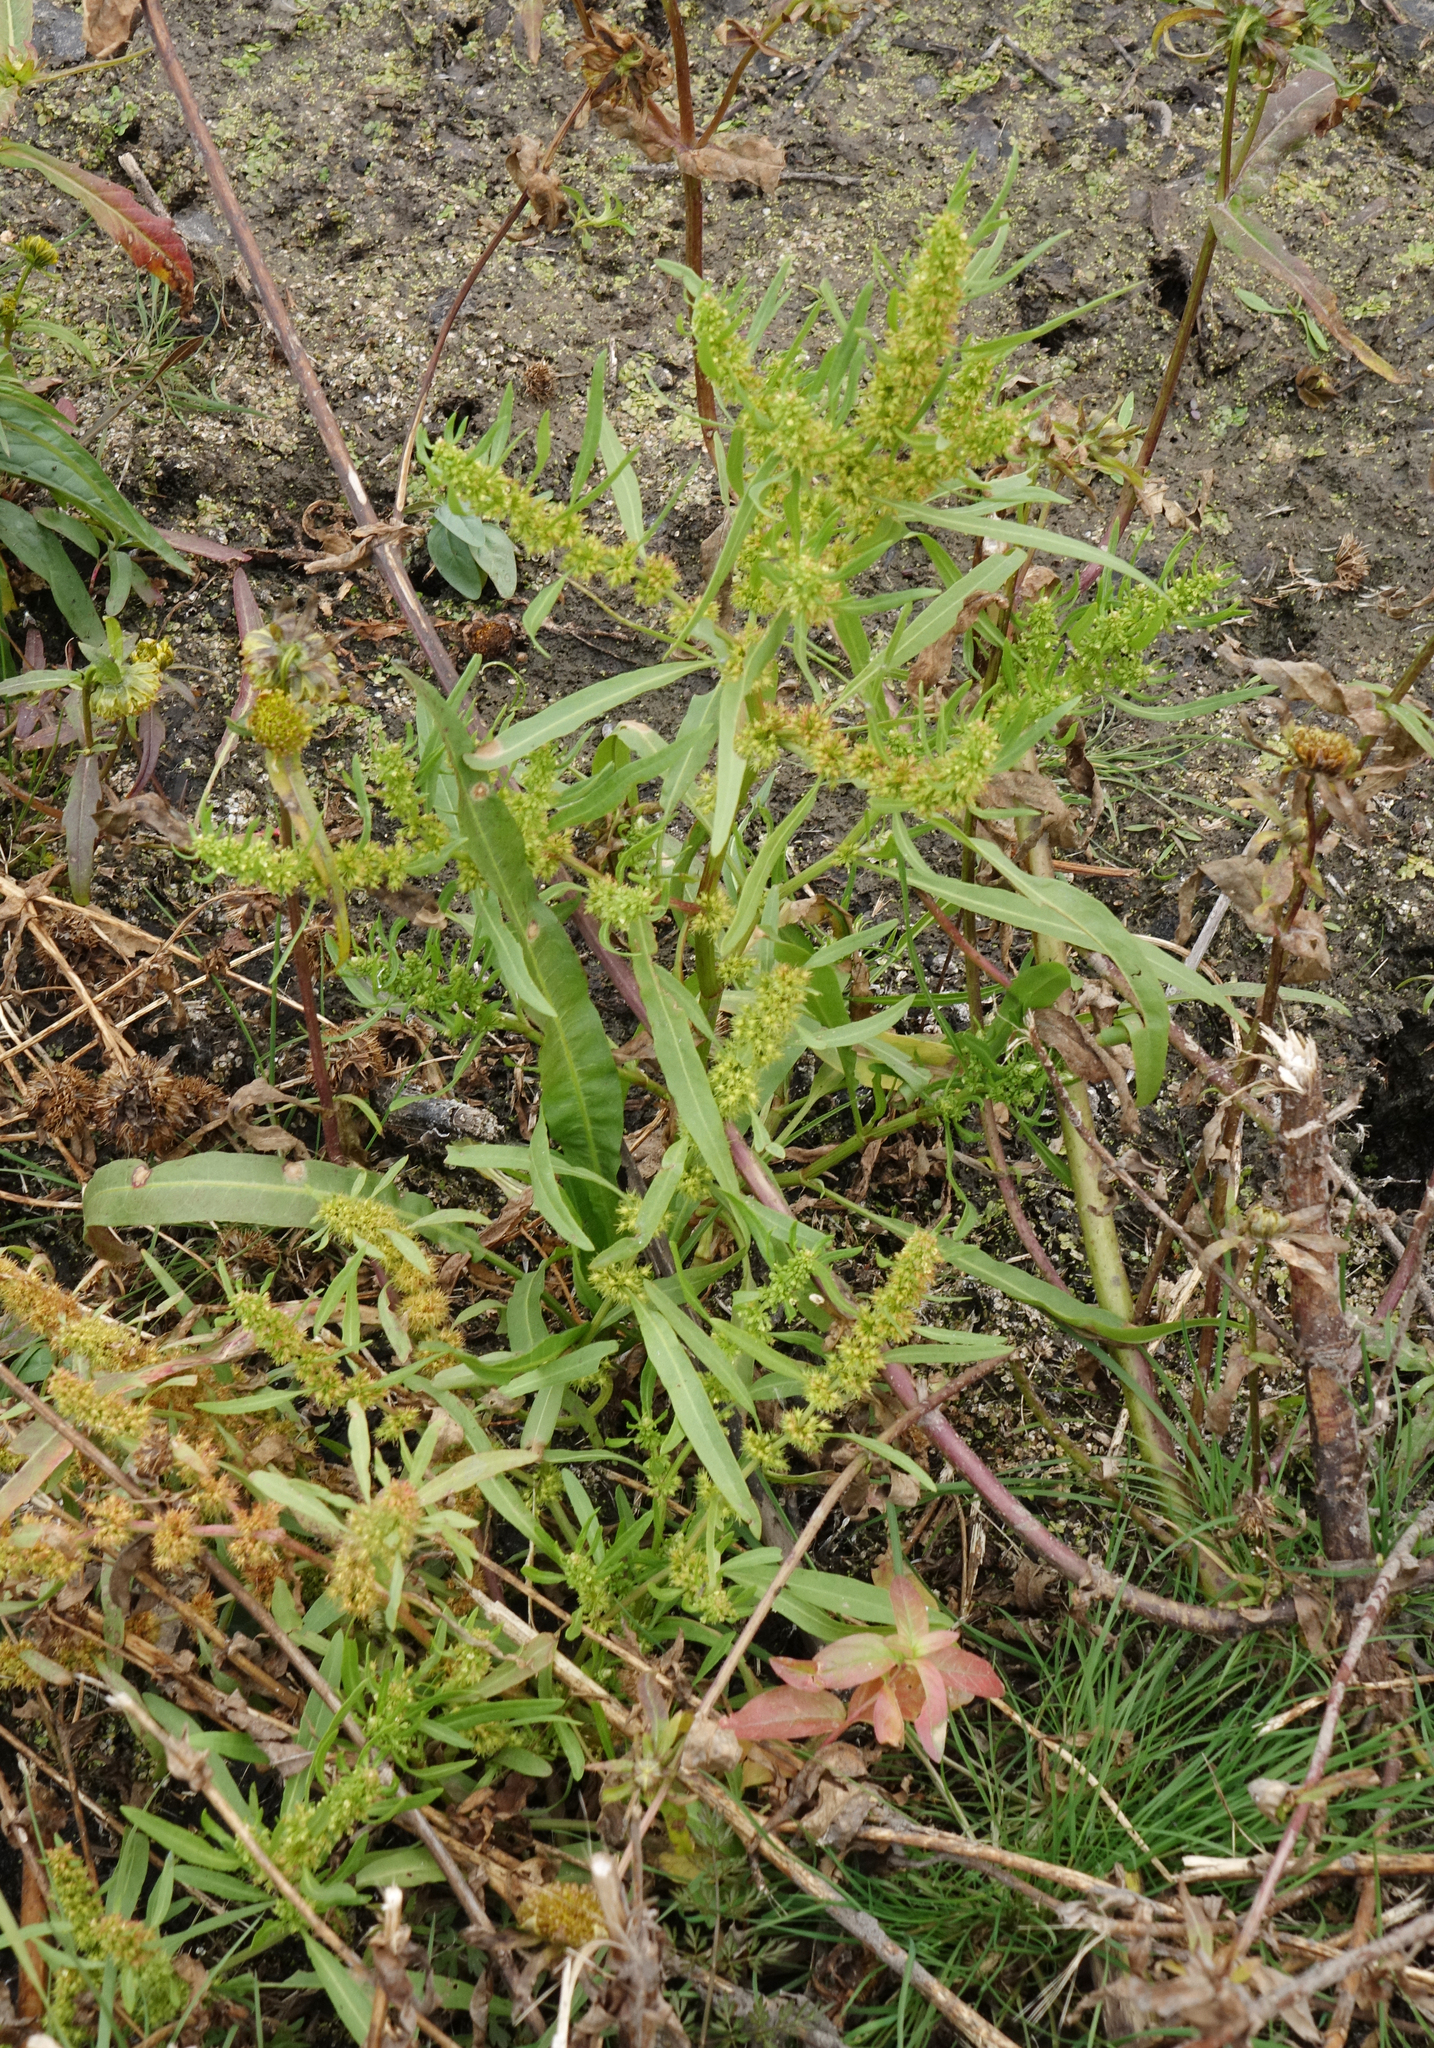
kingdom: Plantae
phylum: Tracheophyta
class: Magnoliopsida
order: Caryophyllales
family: Polygonaceae
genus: Rumex
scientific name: Rumex maritimus
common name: Golden dock
